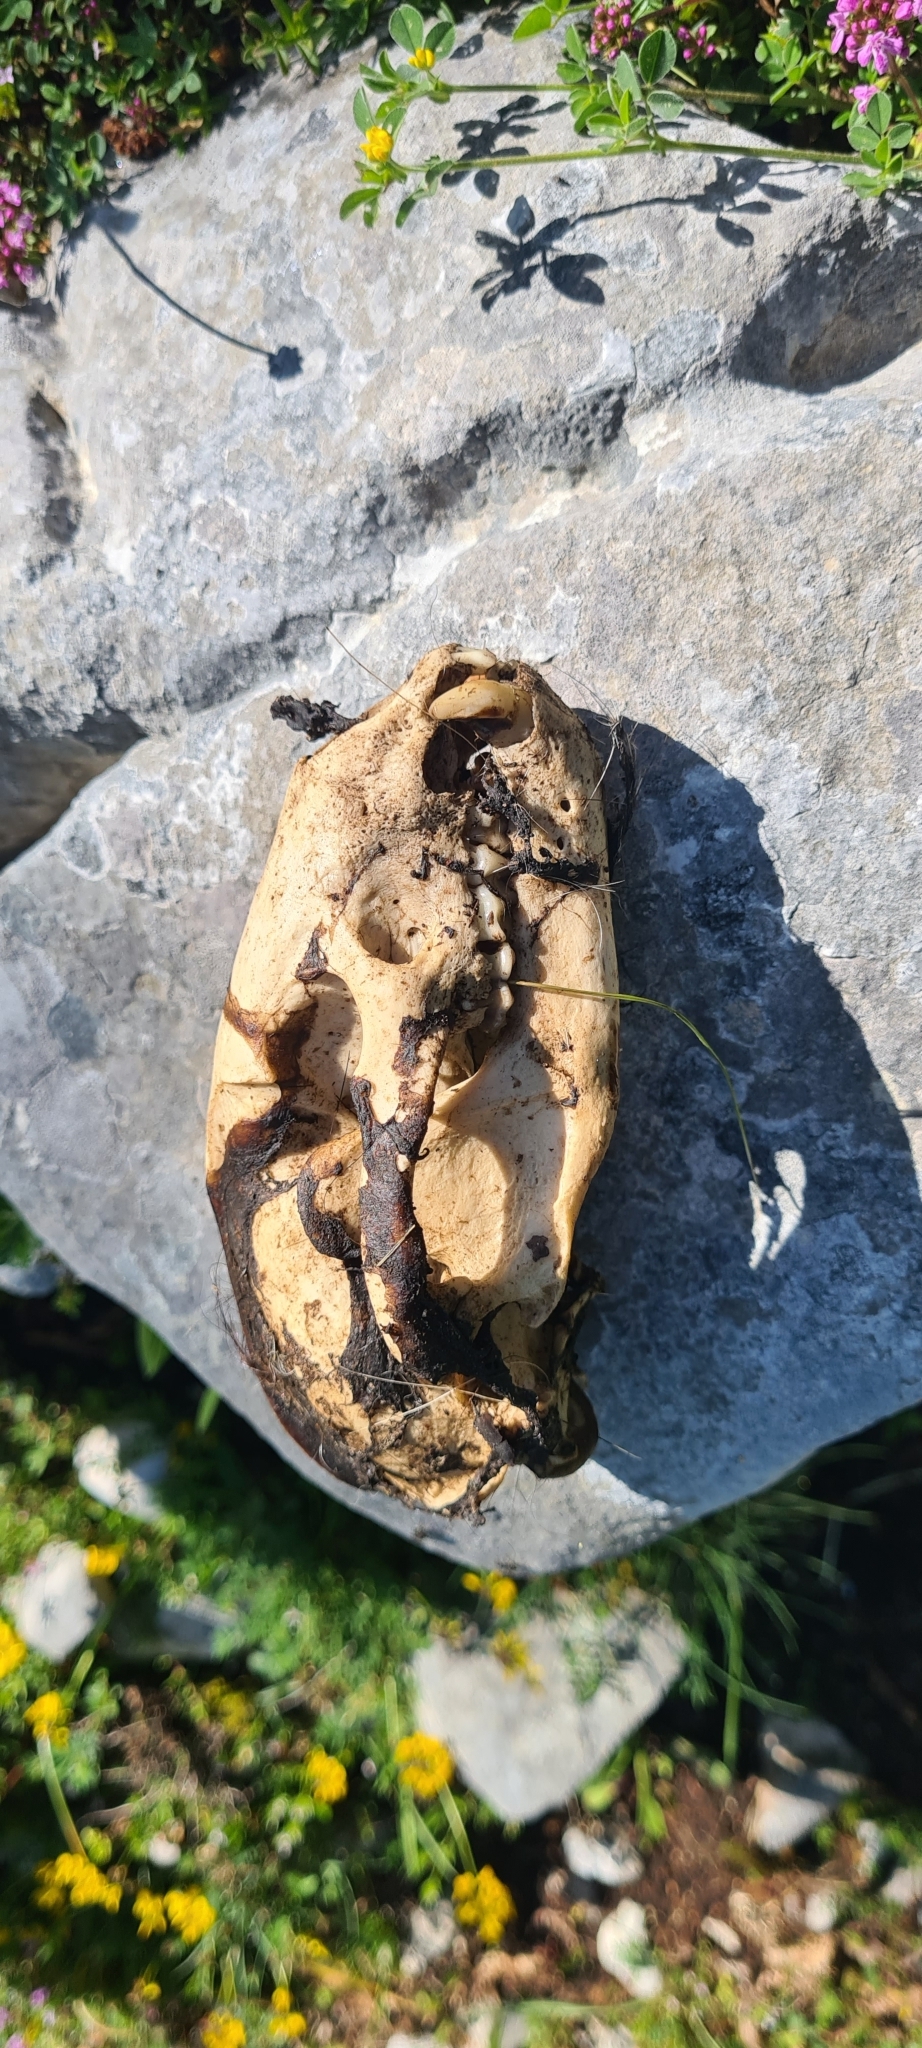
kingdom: Animalia
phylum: Chordata
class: Mammalia
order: Carnivora
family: Mustelidae
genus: Meles
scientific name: Meles meles
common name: Eurasian badger
